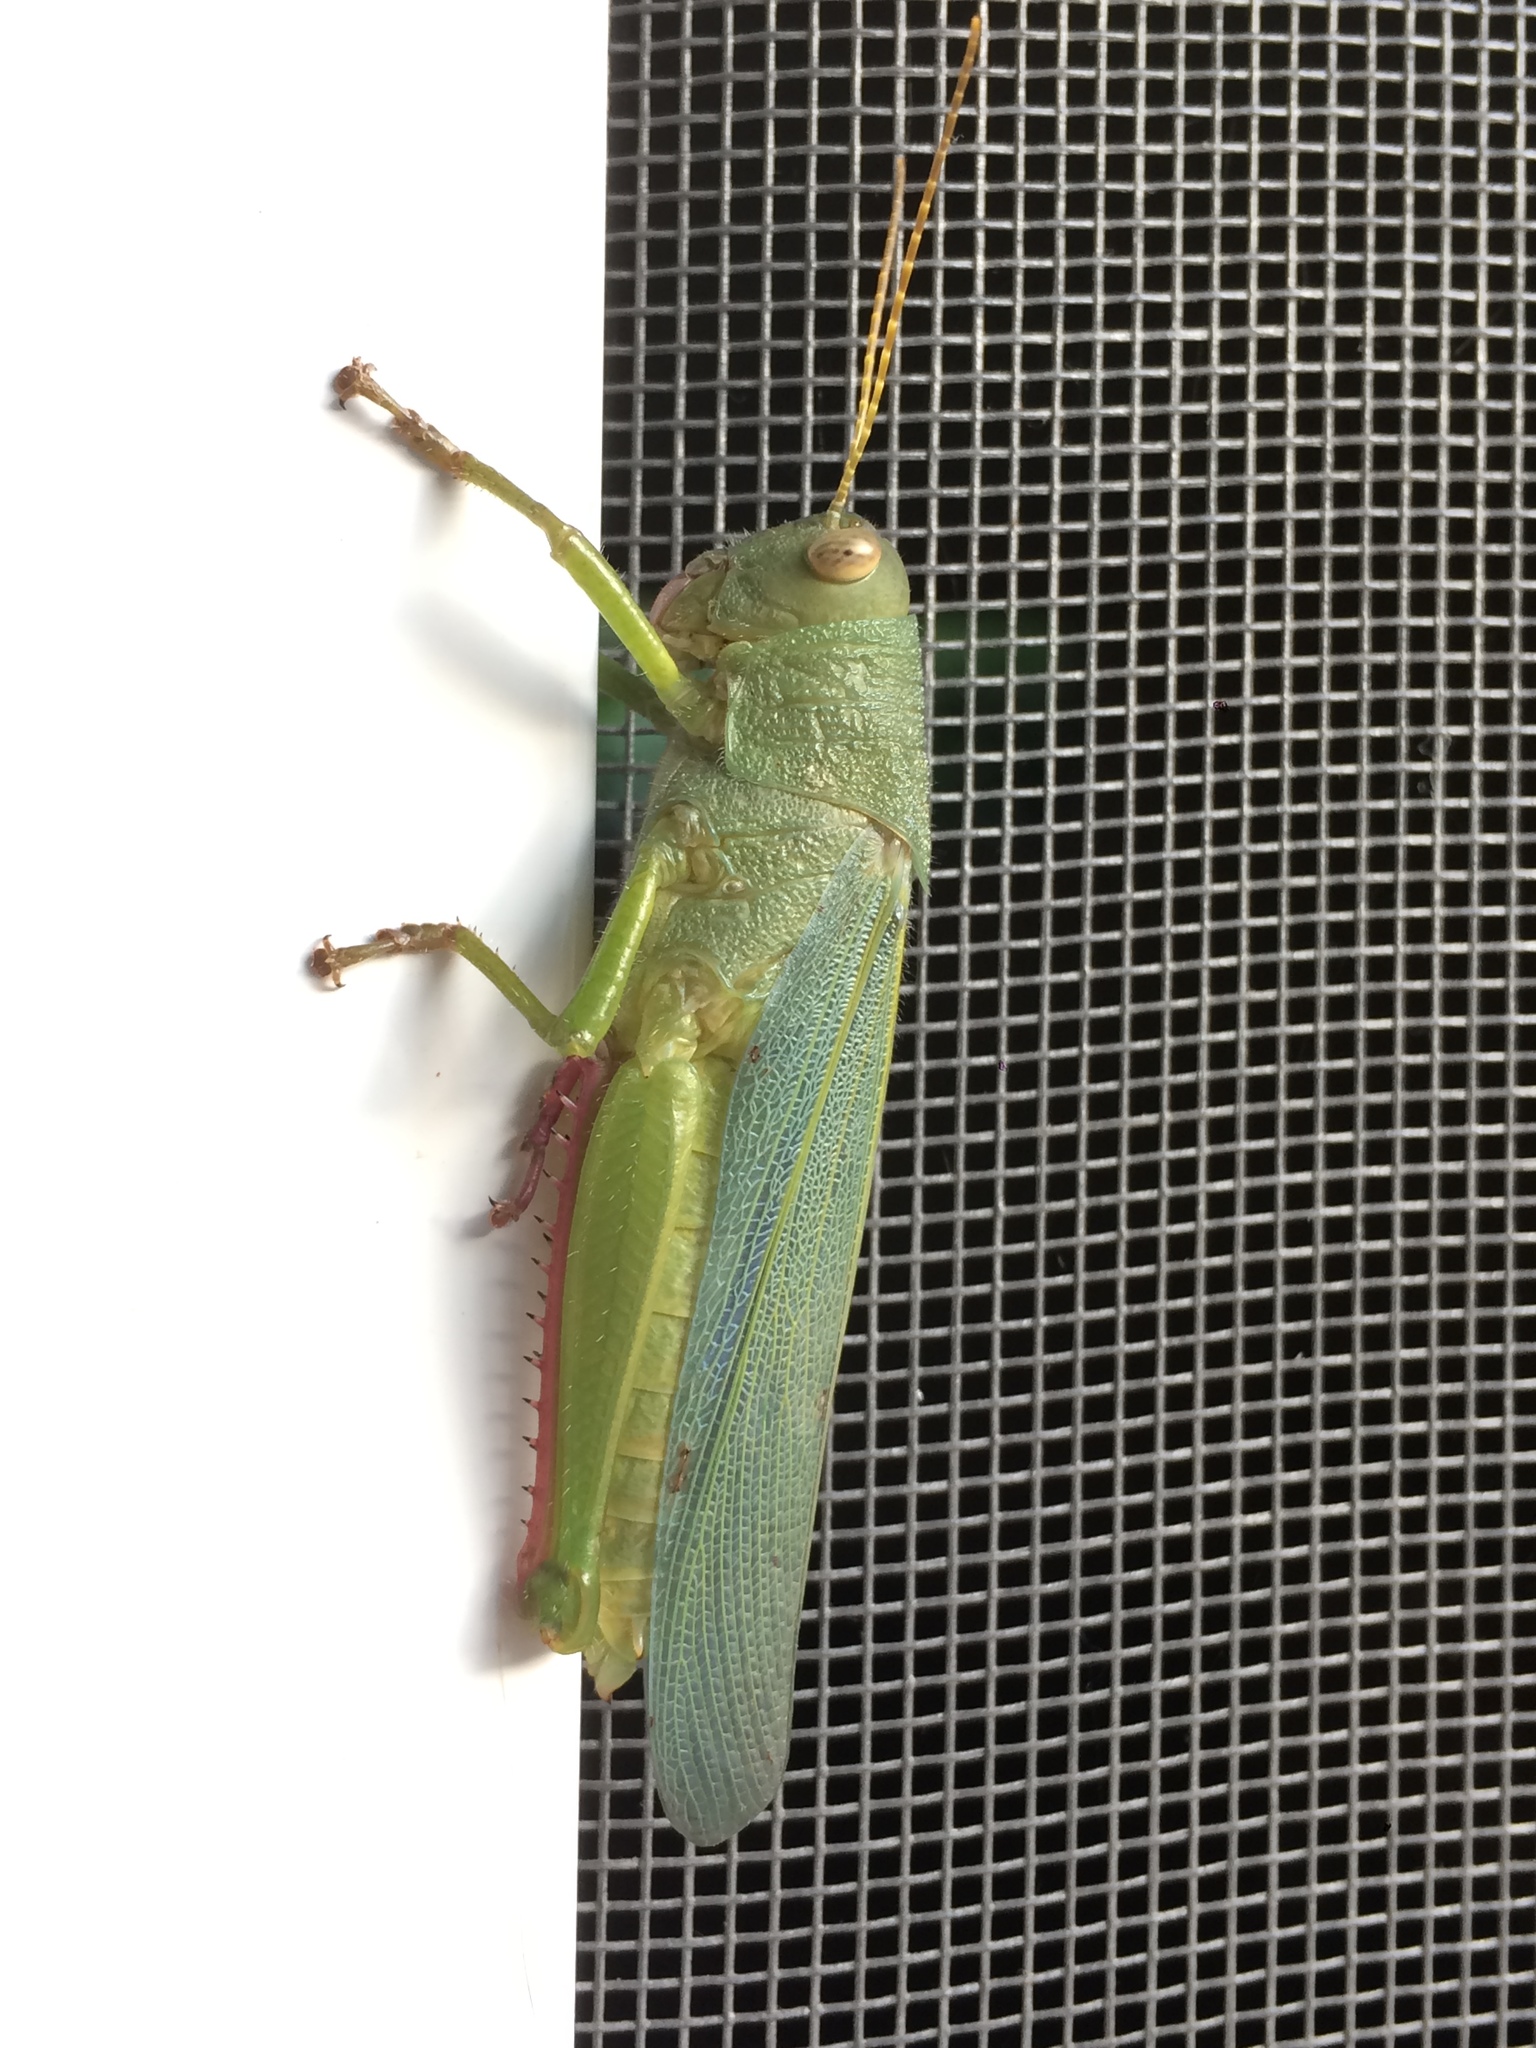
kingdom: Animalia
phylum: Arthropoda
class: Insecta
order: Orthoptera
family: Romaleidae
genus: Zoniopoda
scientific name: Zoniopoda hempeli
